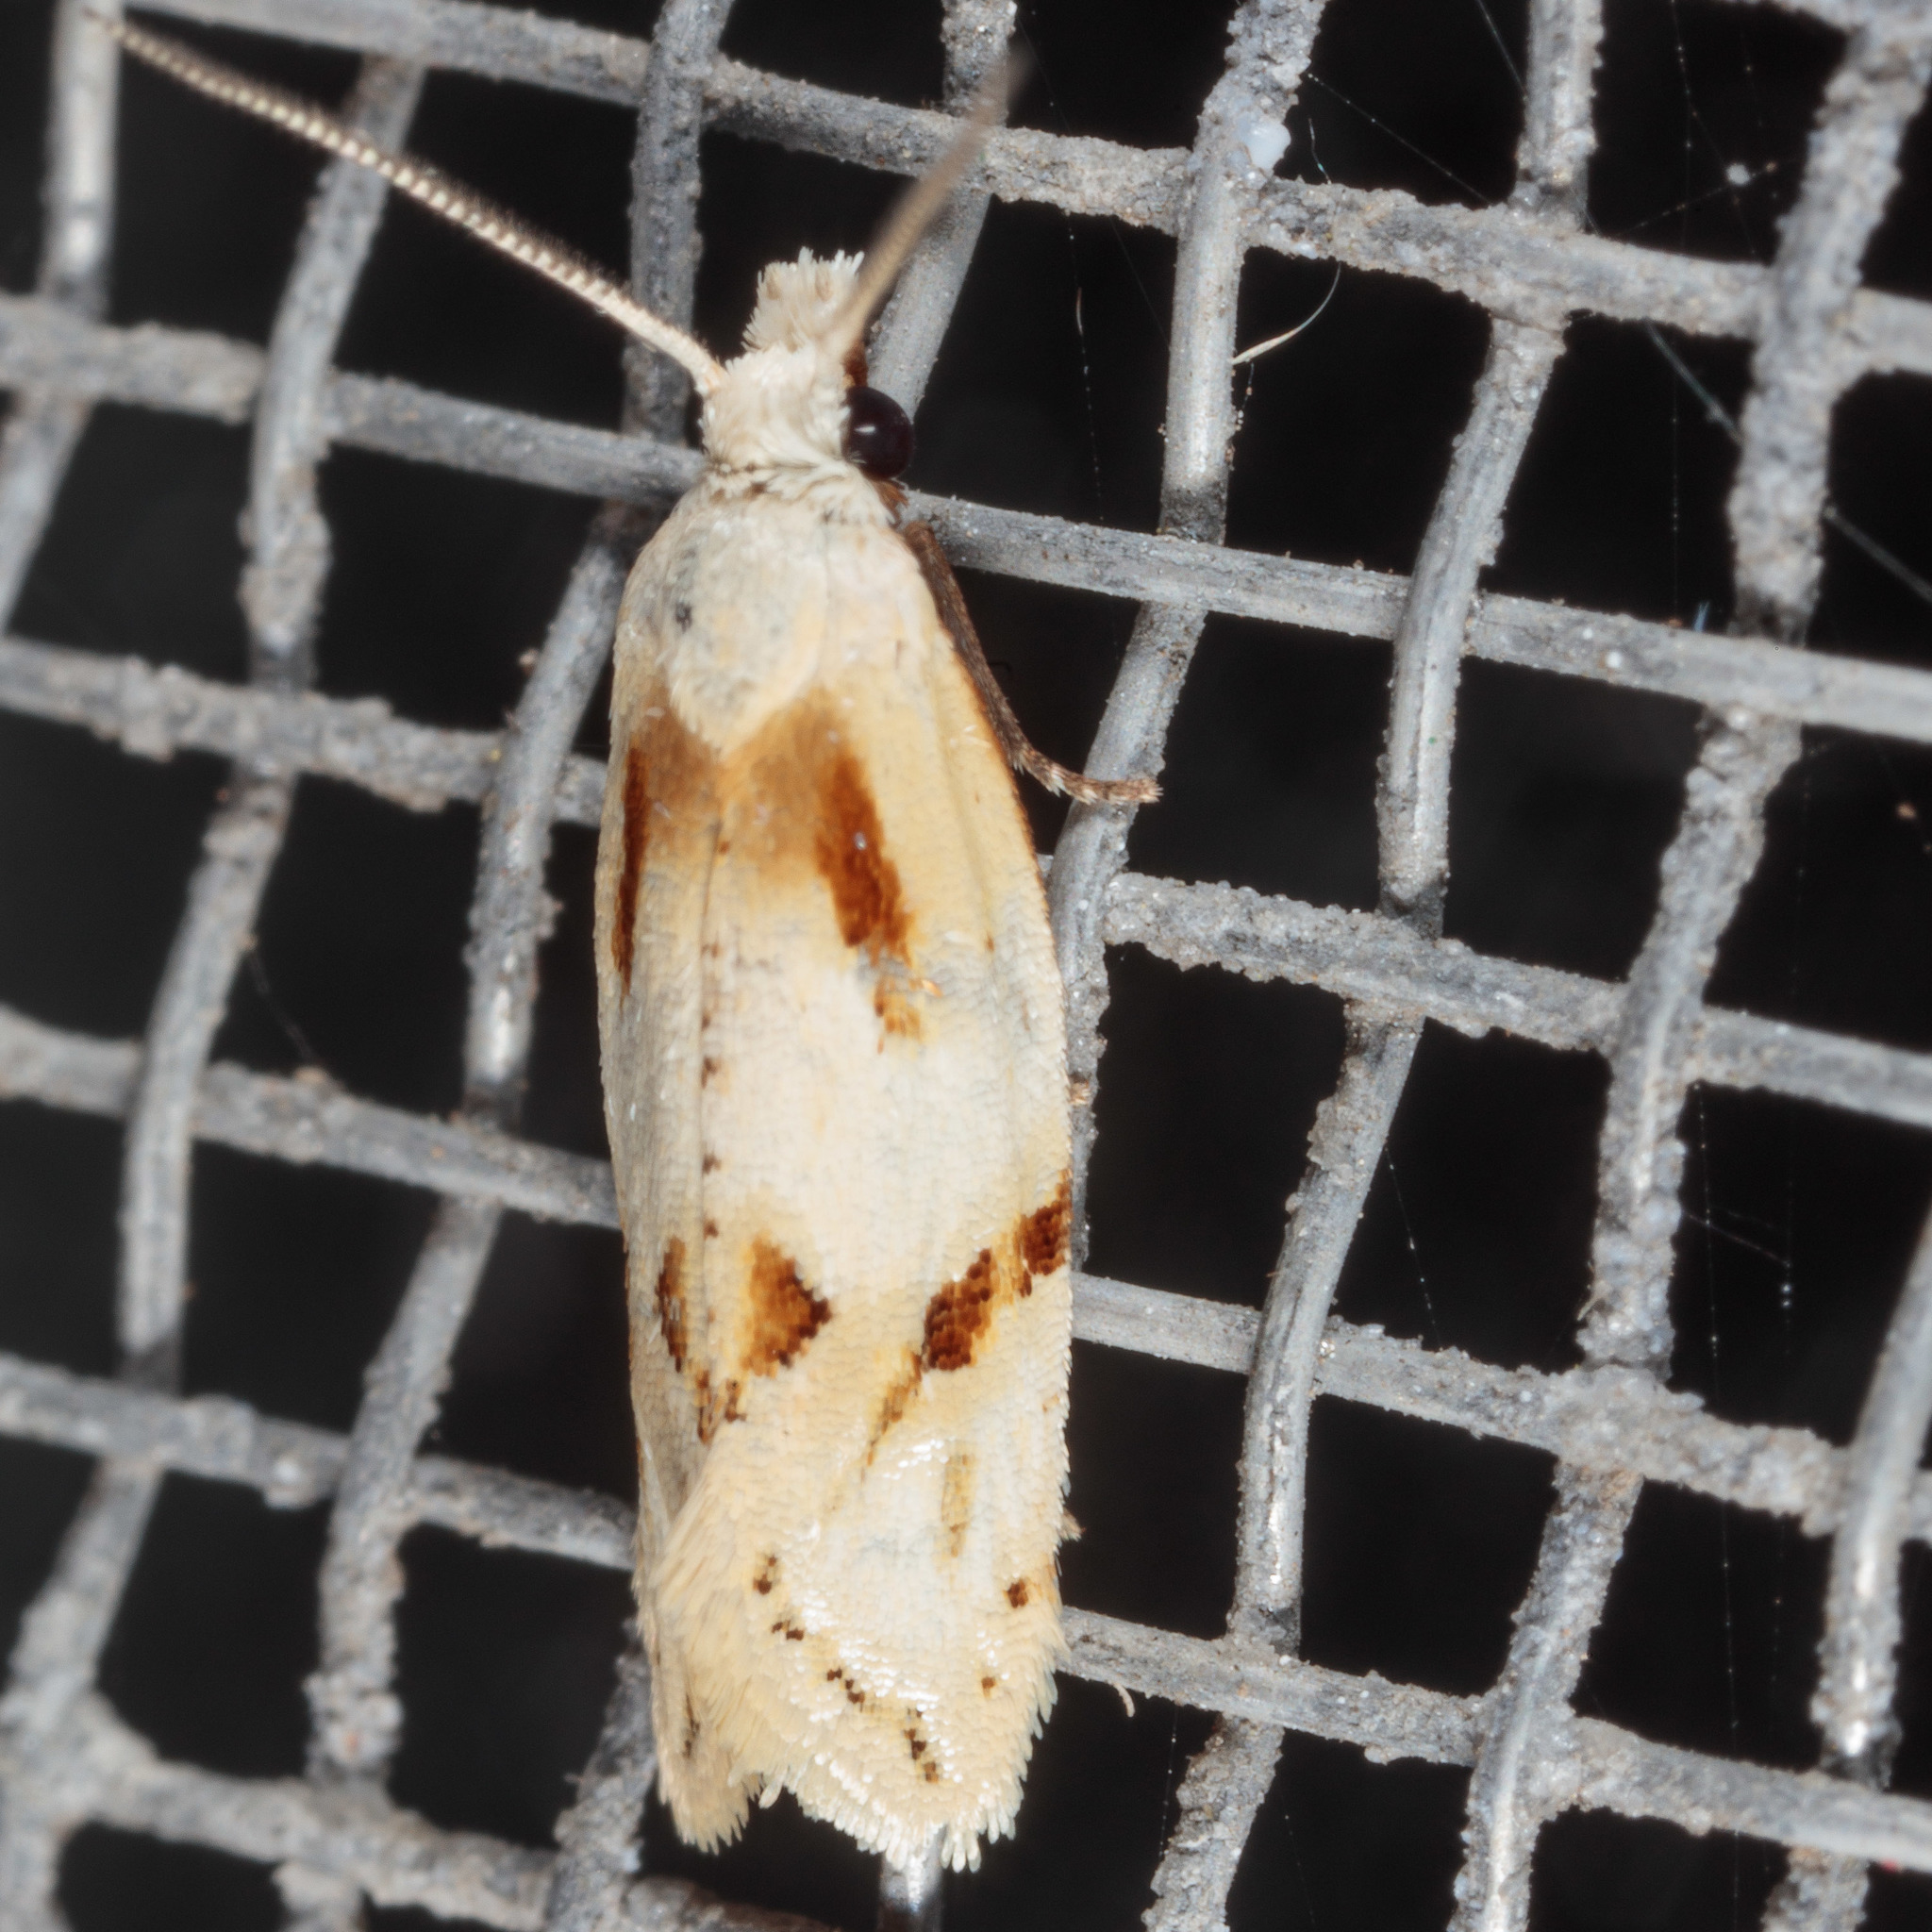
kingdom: Animalia
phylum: Arthropoda
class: Insecta
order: Lepidoptera
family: Tortricidae
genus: Aethes
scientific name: Aethes seriatana
